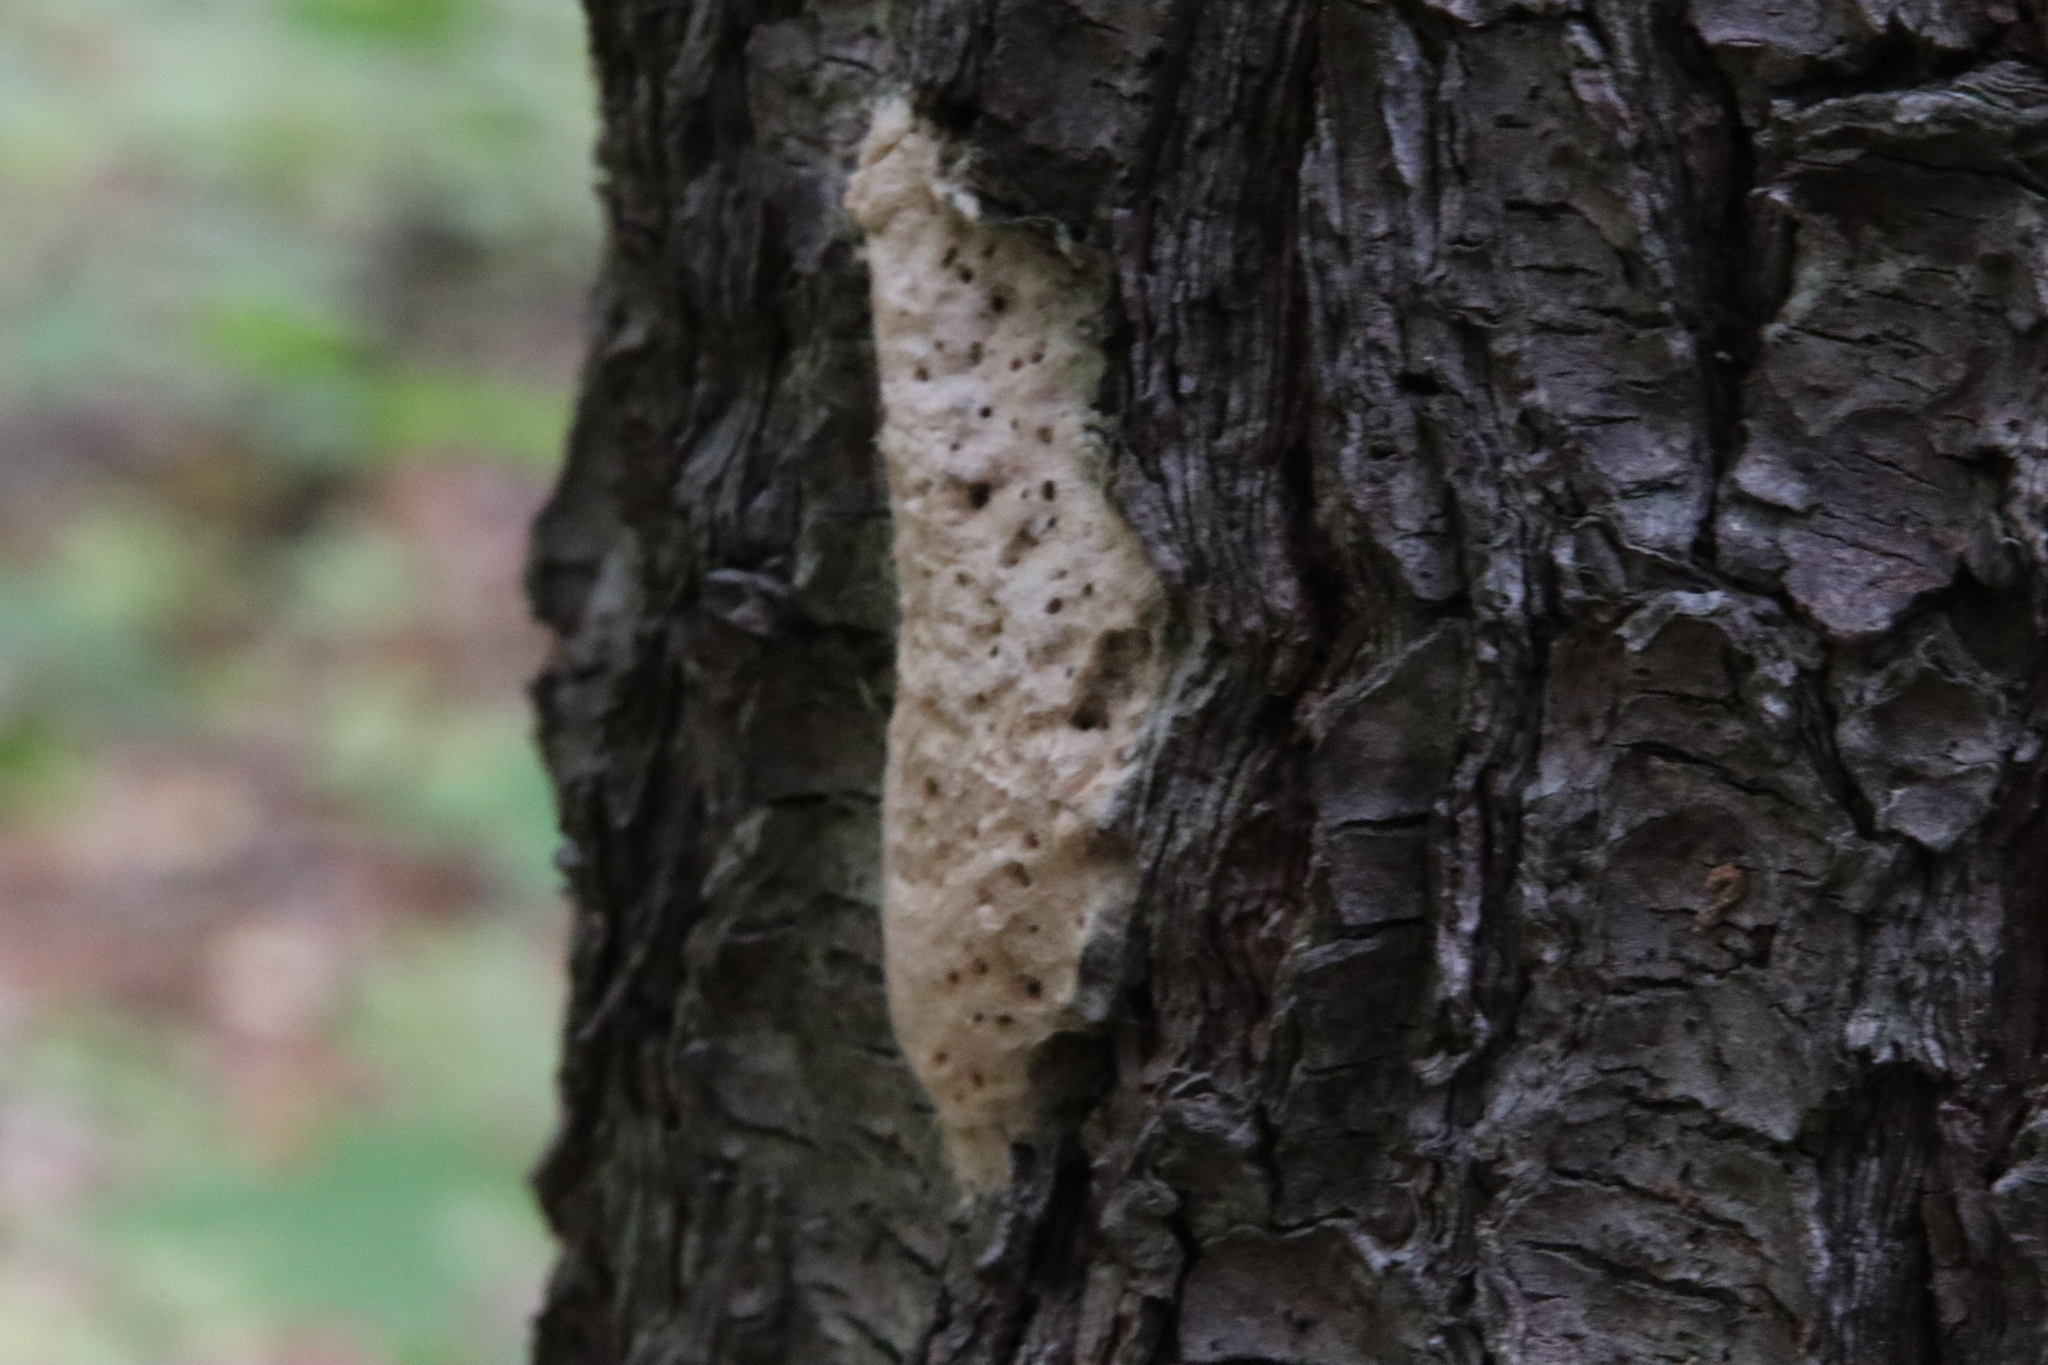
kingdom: Animalia
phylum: Arthropoda
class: Insecta
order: Lepidoptera
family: Erebidae
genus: Lymantria
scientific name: Lymantria dispar
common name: Gypsy moth
